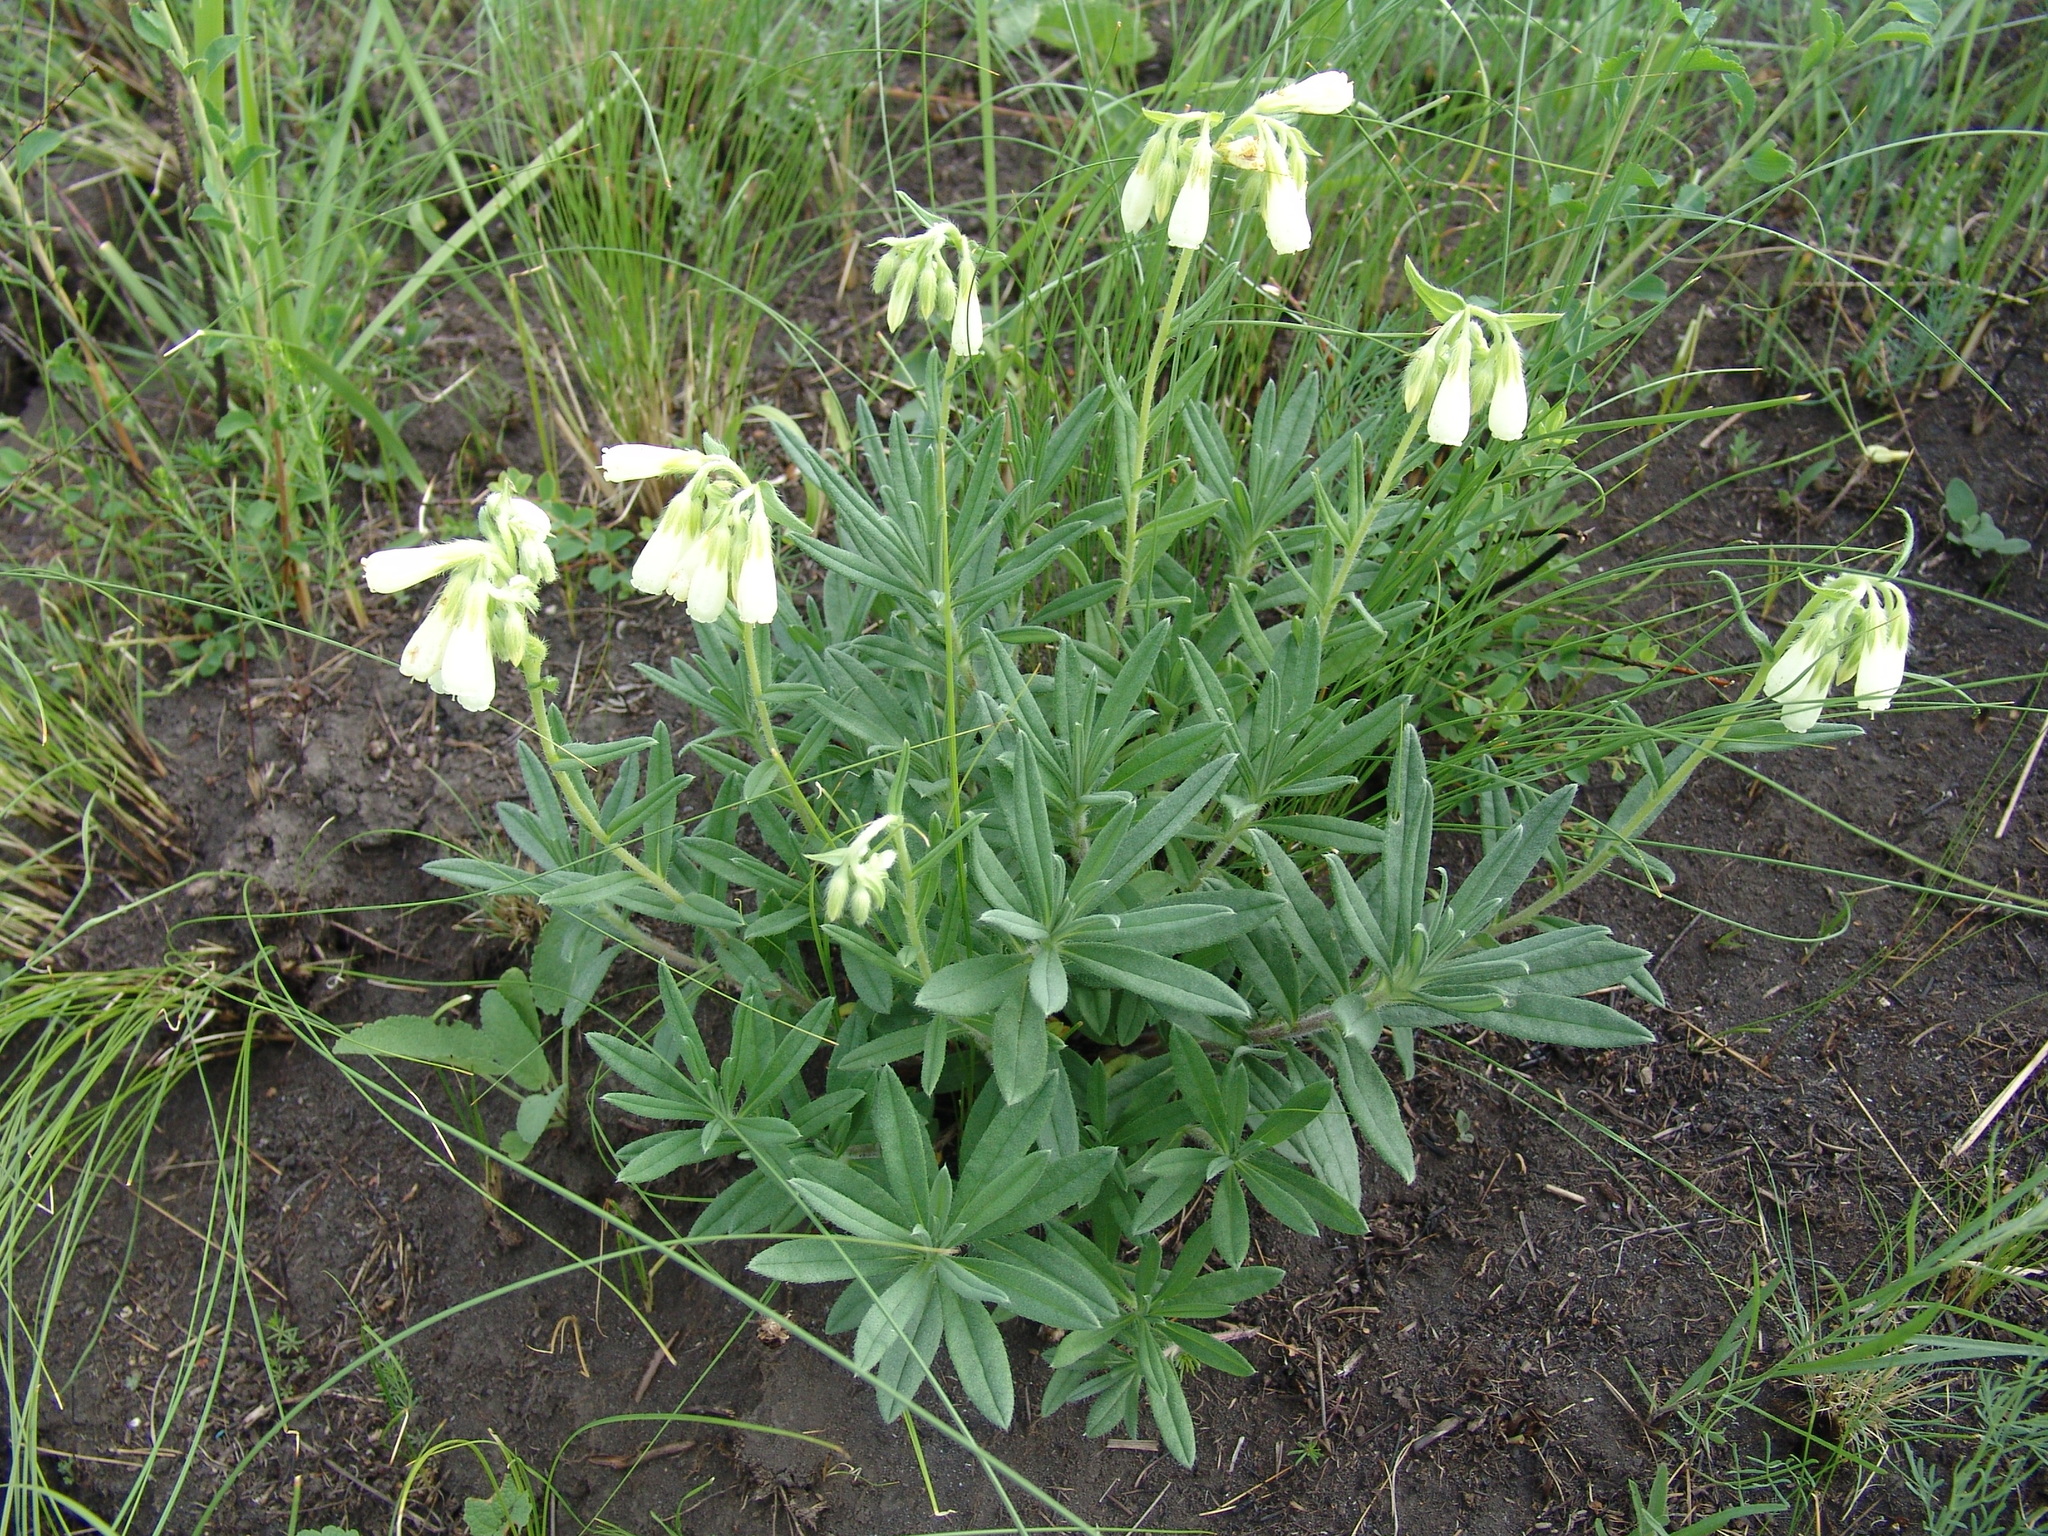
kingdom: Plantae
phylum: Tracheophyta
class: Magnoliopsida
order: Boraginales
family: Boraginaceae
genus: Onosma
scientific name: Onosma simplicissima
